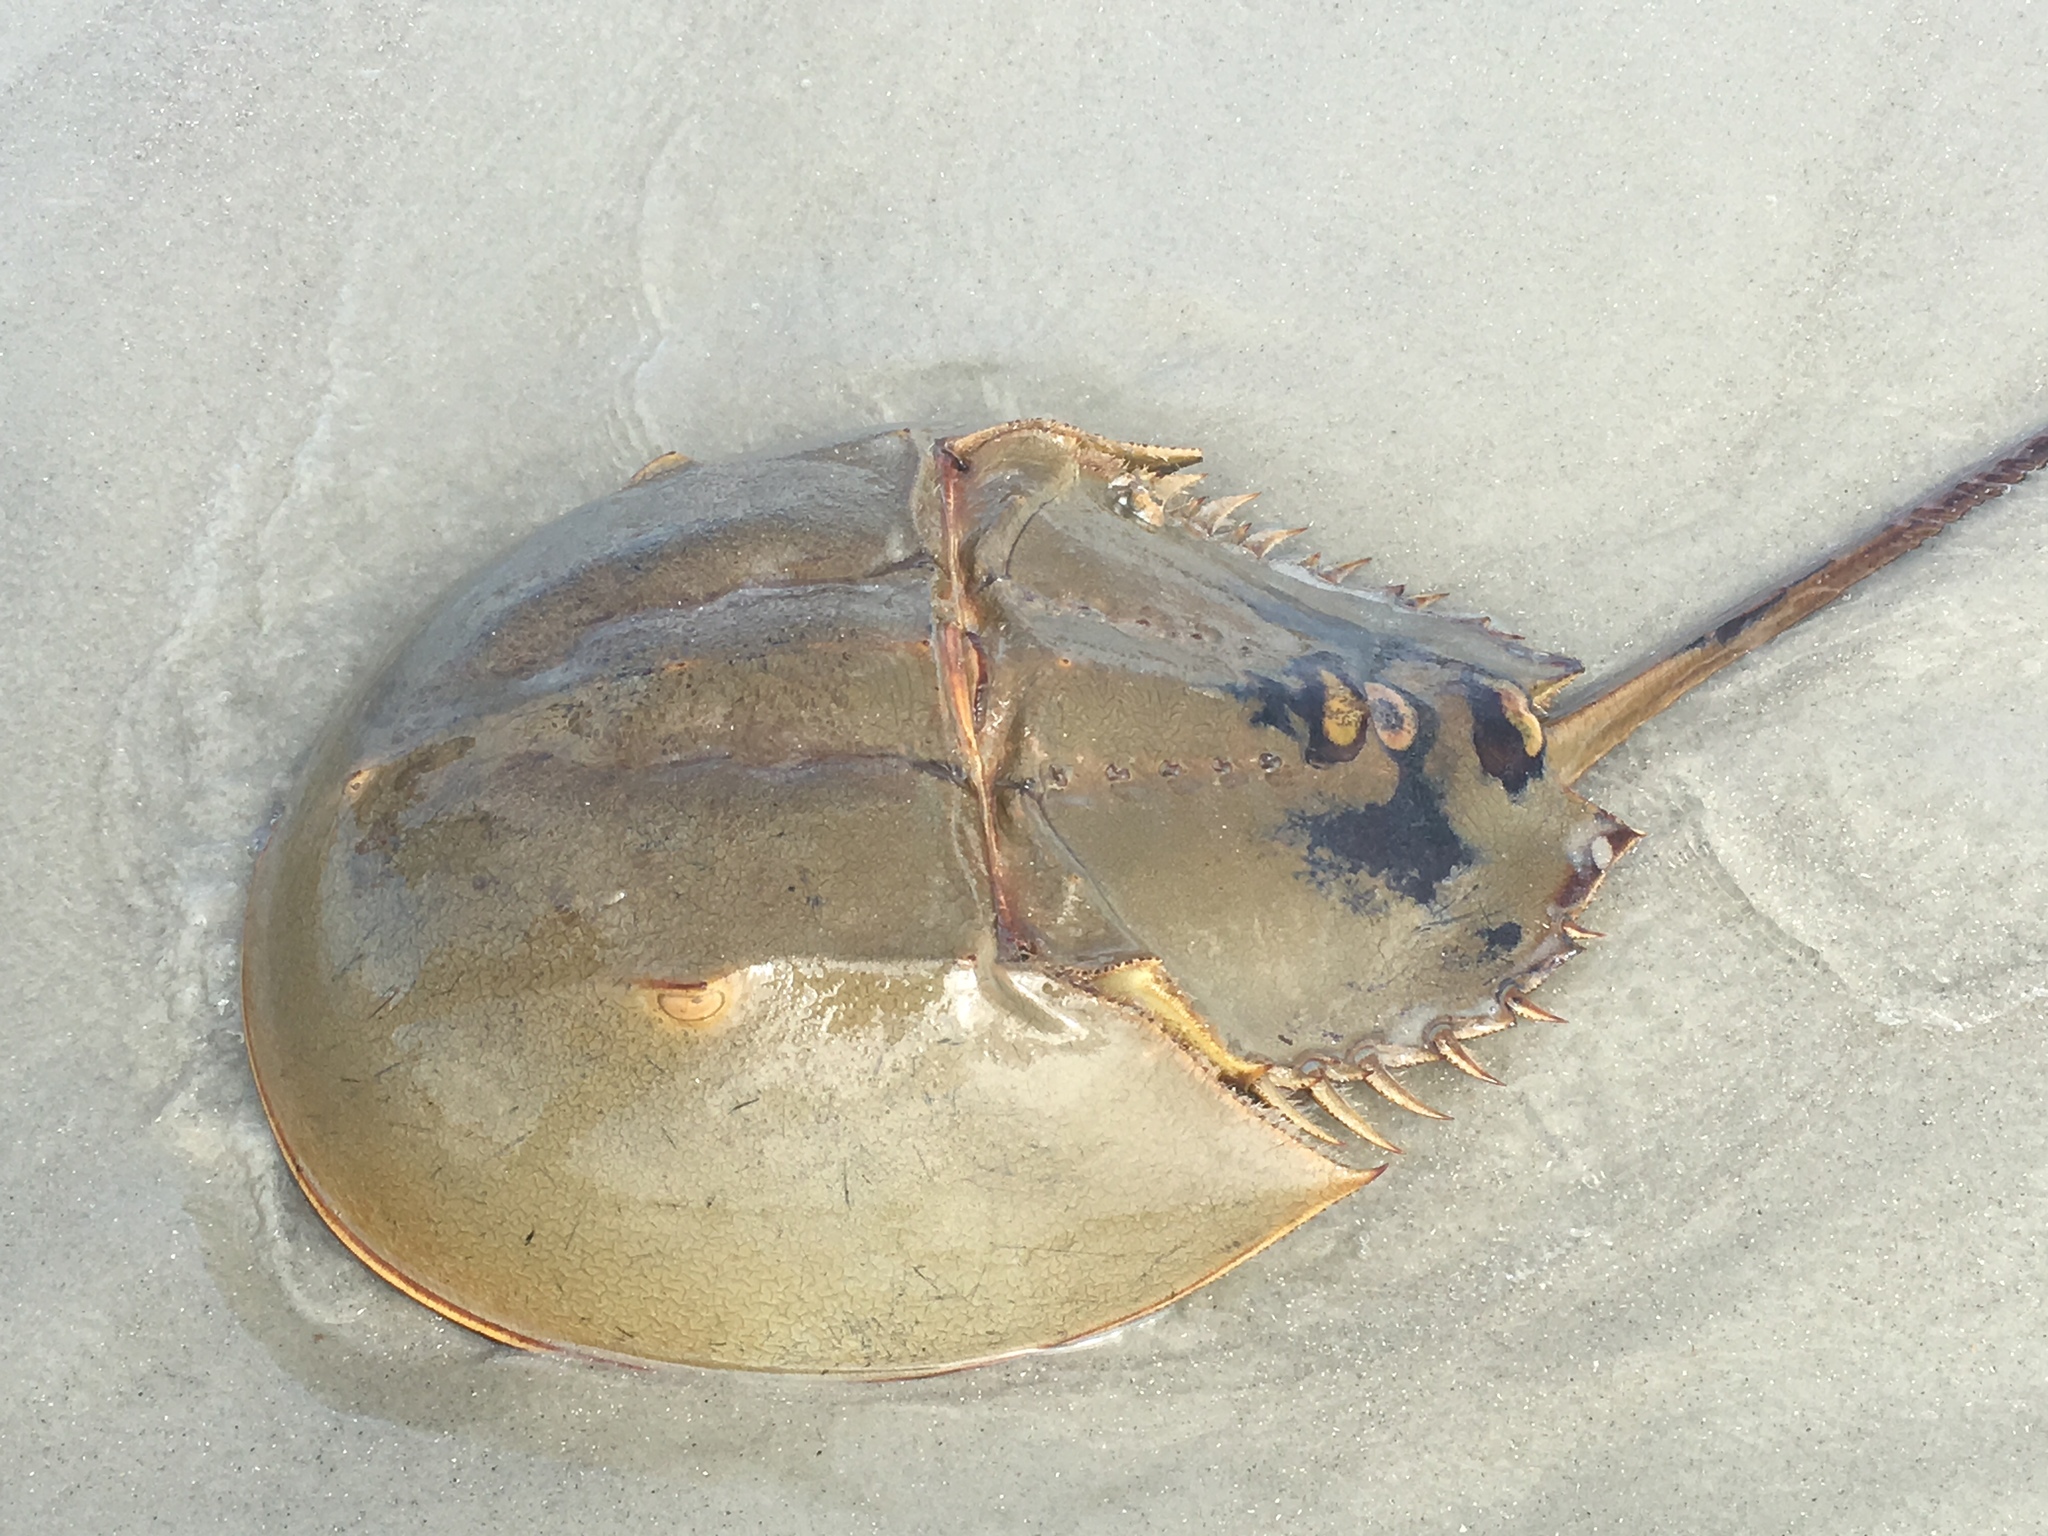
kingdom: Animalia
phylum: Arthropoda
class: Merostomata
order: Xiphosurida
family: Limulidae
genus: Limulus
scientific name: Limulus polyphemus
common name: Horseshoe crab
